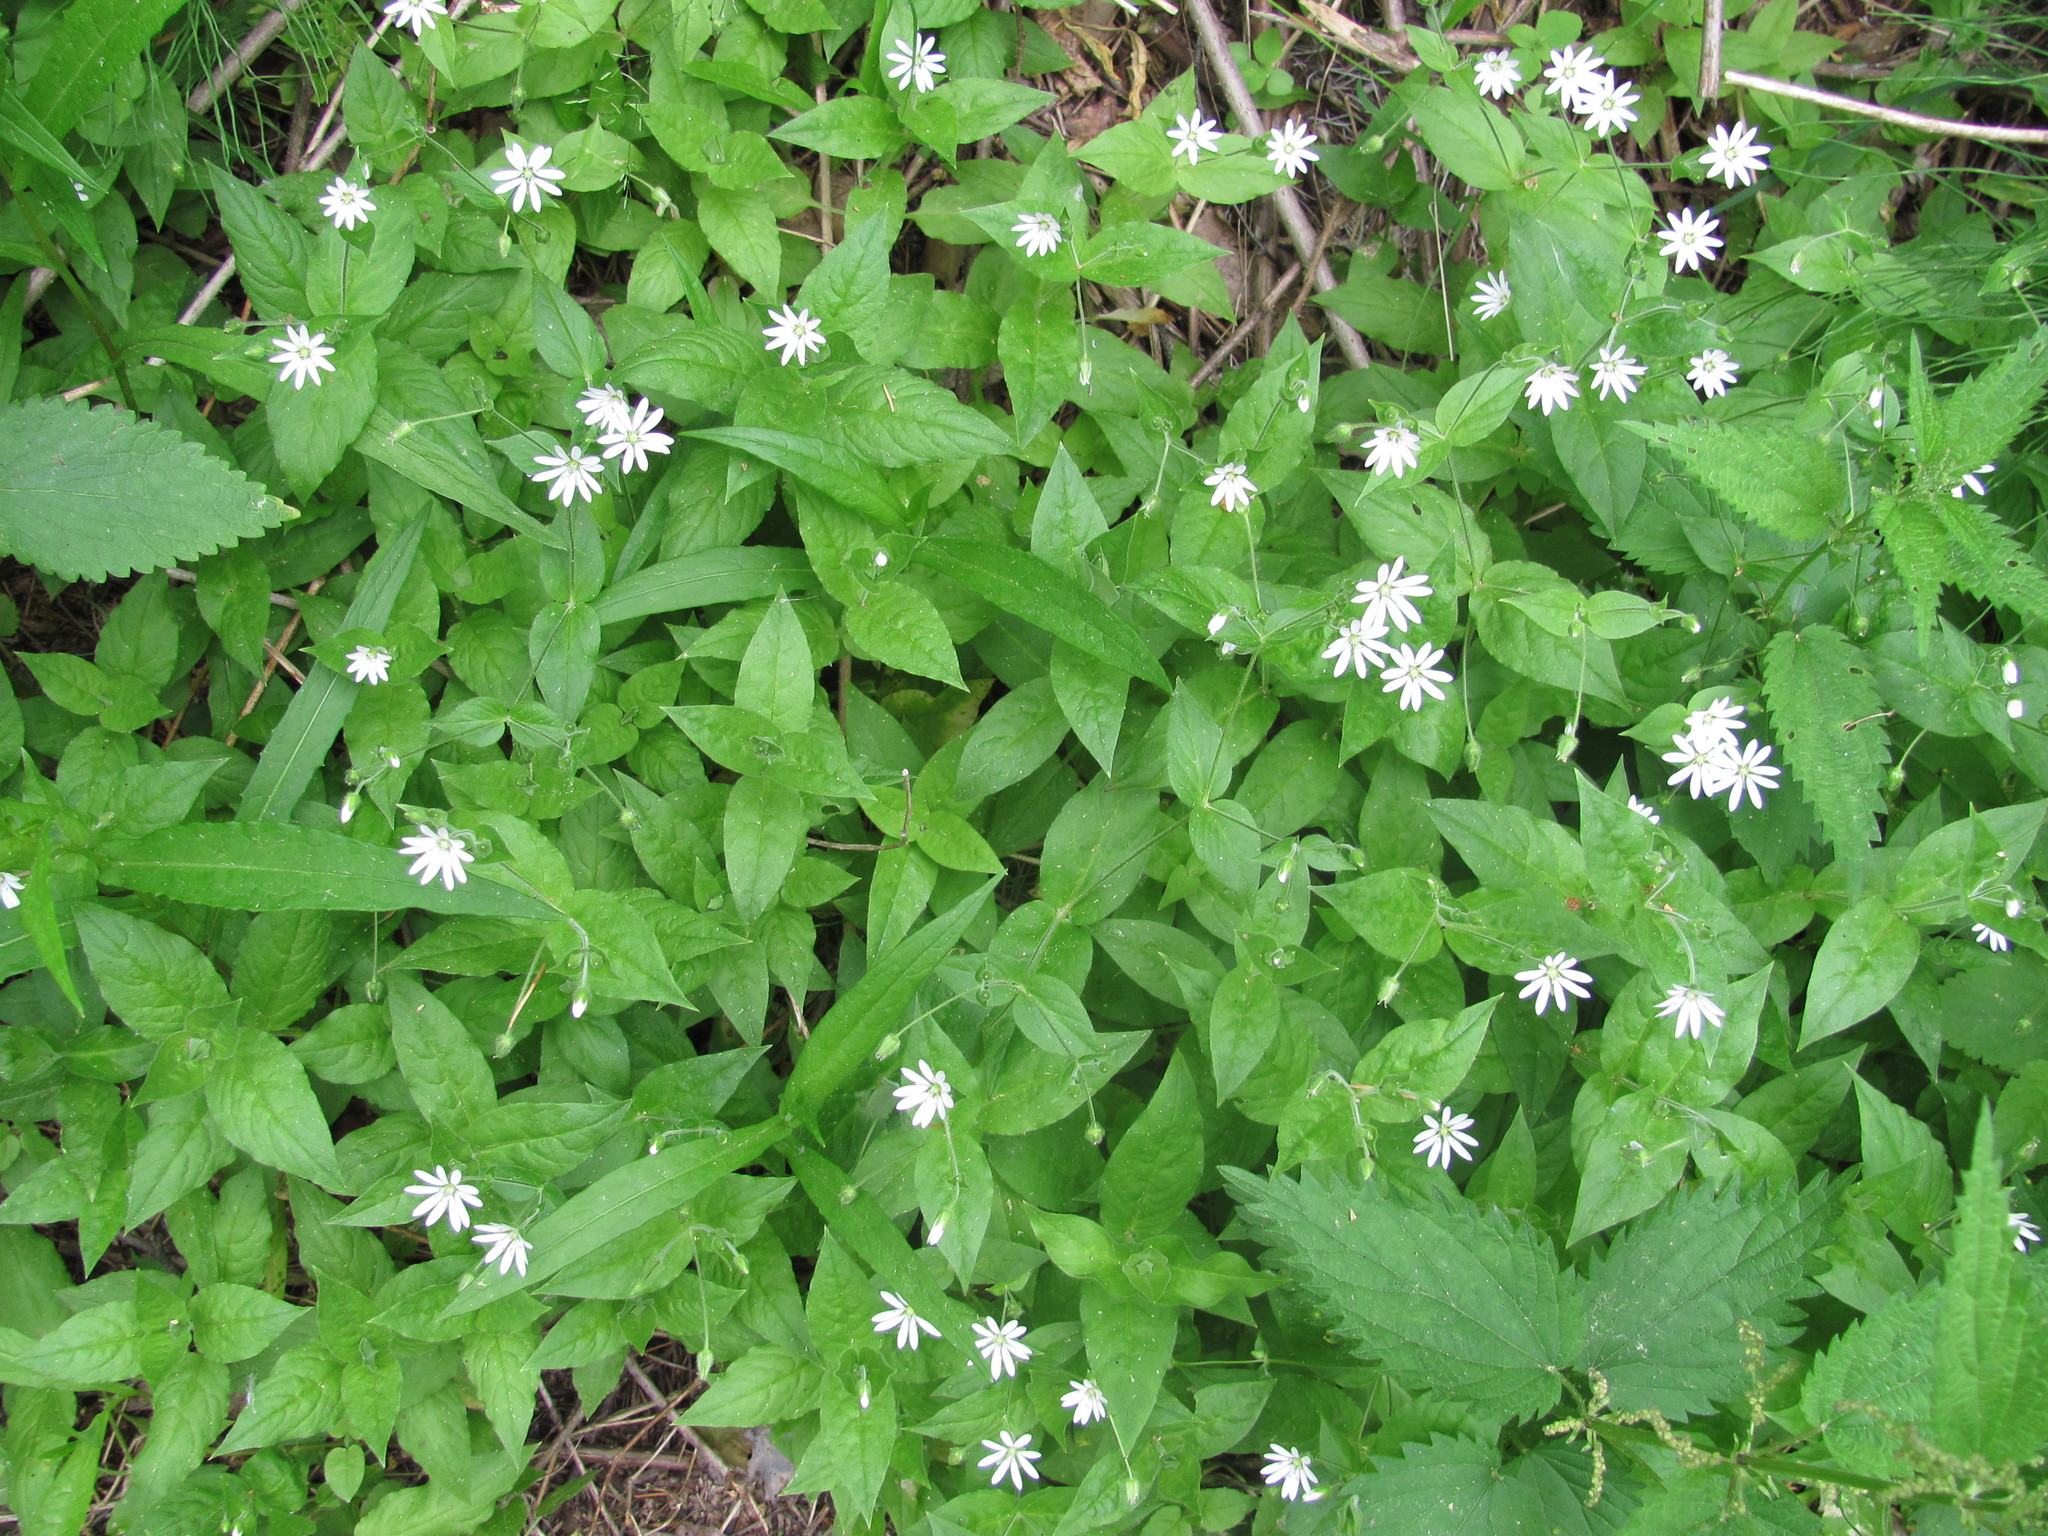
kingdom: Plantae
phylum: Tracheophyta
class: Magnoliopsida
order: Caryophyllales
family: Caryophyllaceae
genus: Stellaria
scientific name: Stellaria bungeana
